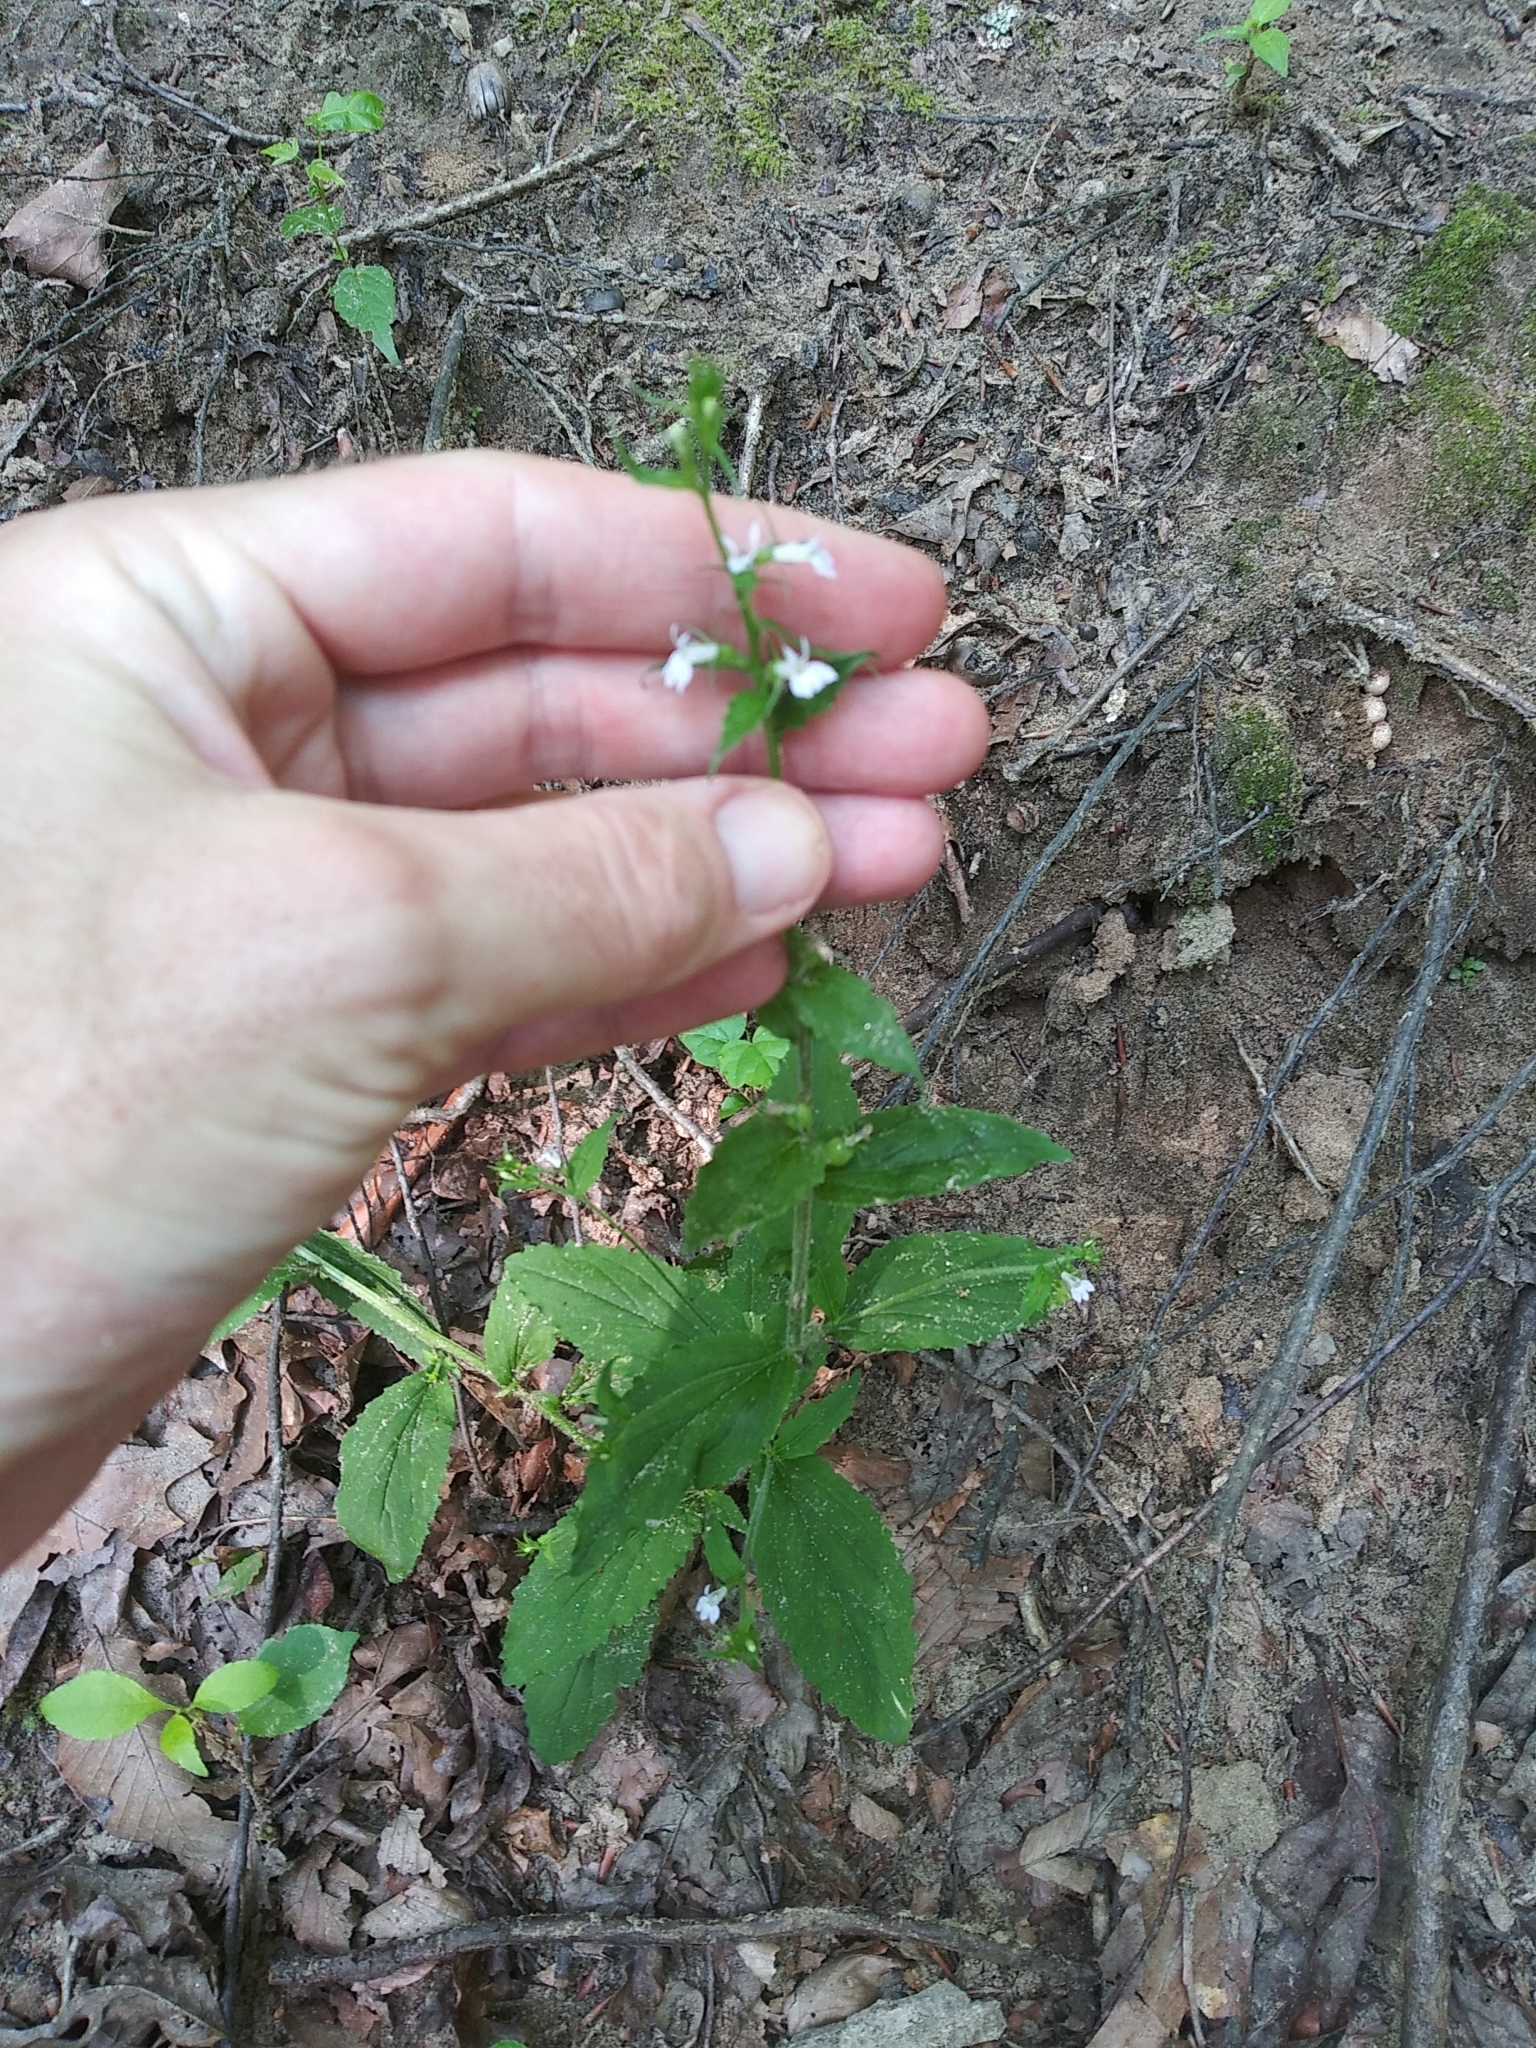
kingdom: Plantae
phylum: Tracheophyta
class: Magnoliopsida
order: Asterales
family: Campanulaceae
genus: Lobelia
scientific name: Lobelia inflata
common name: Indian tobacco
